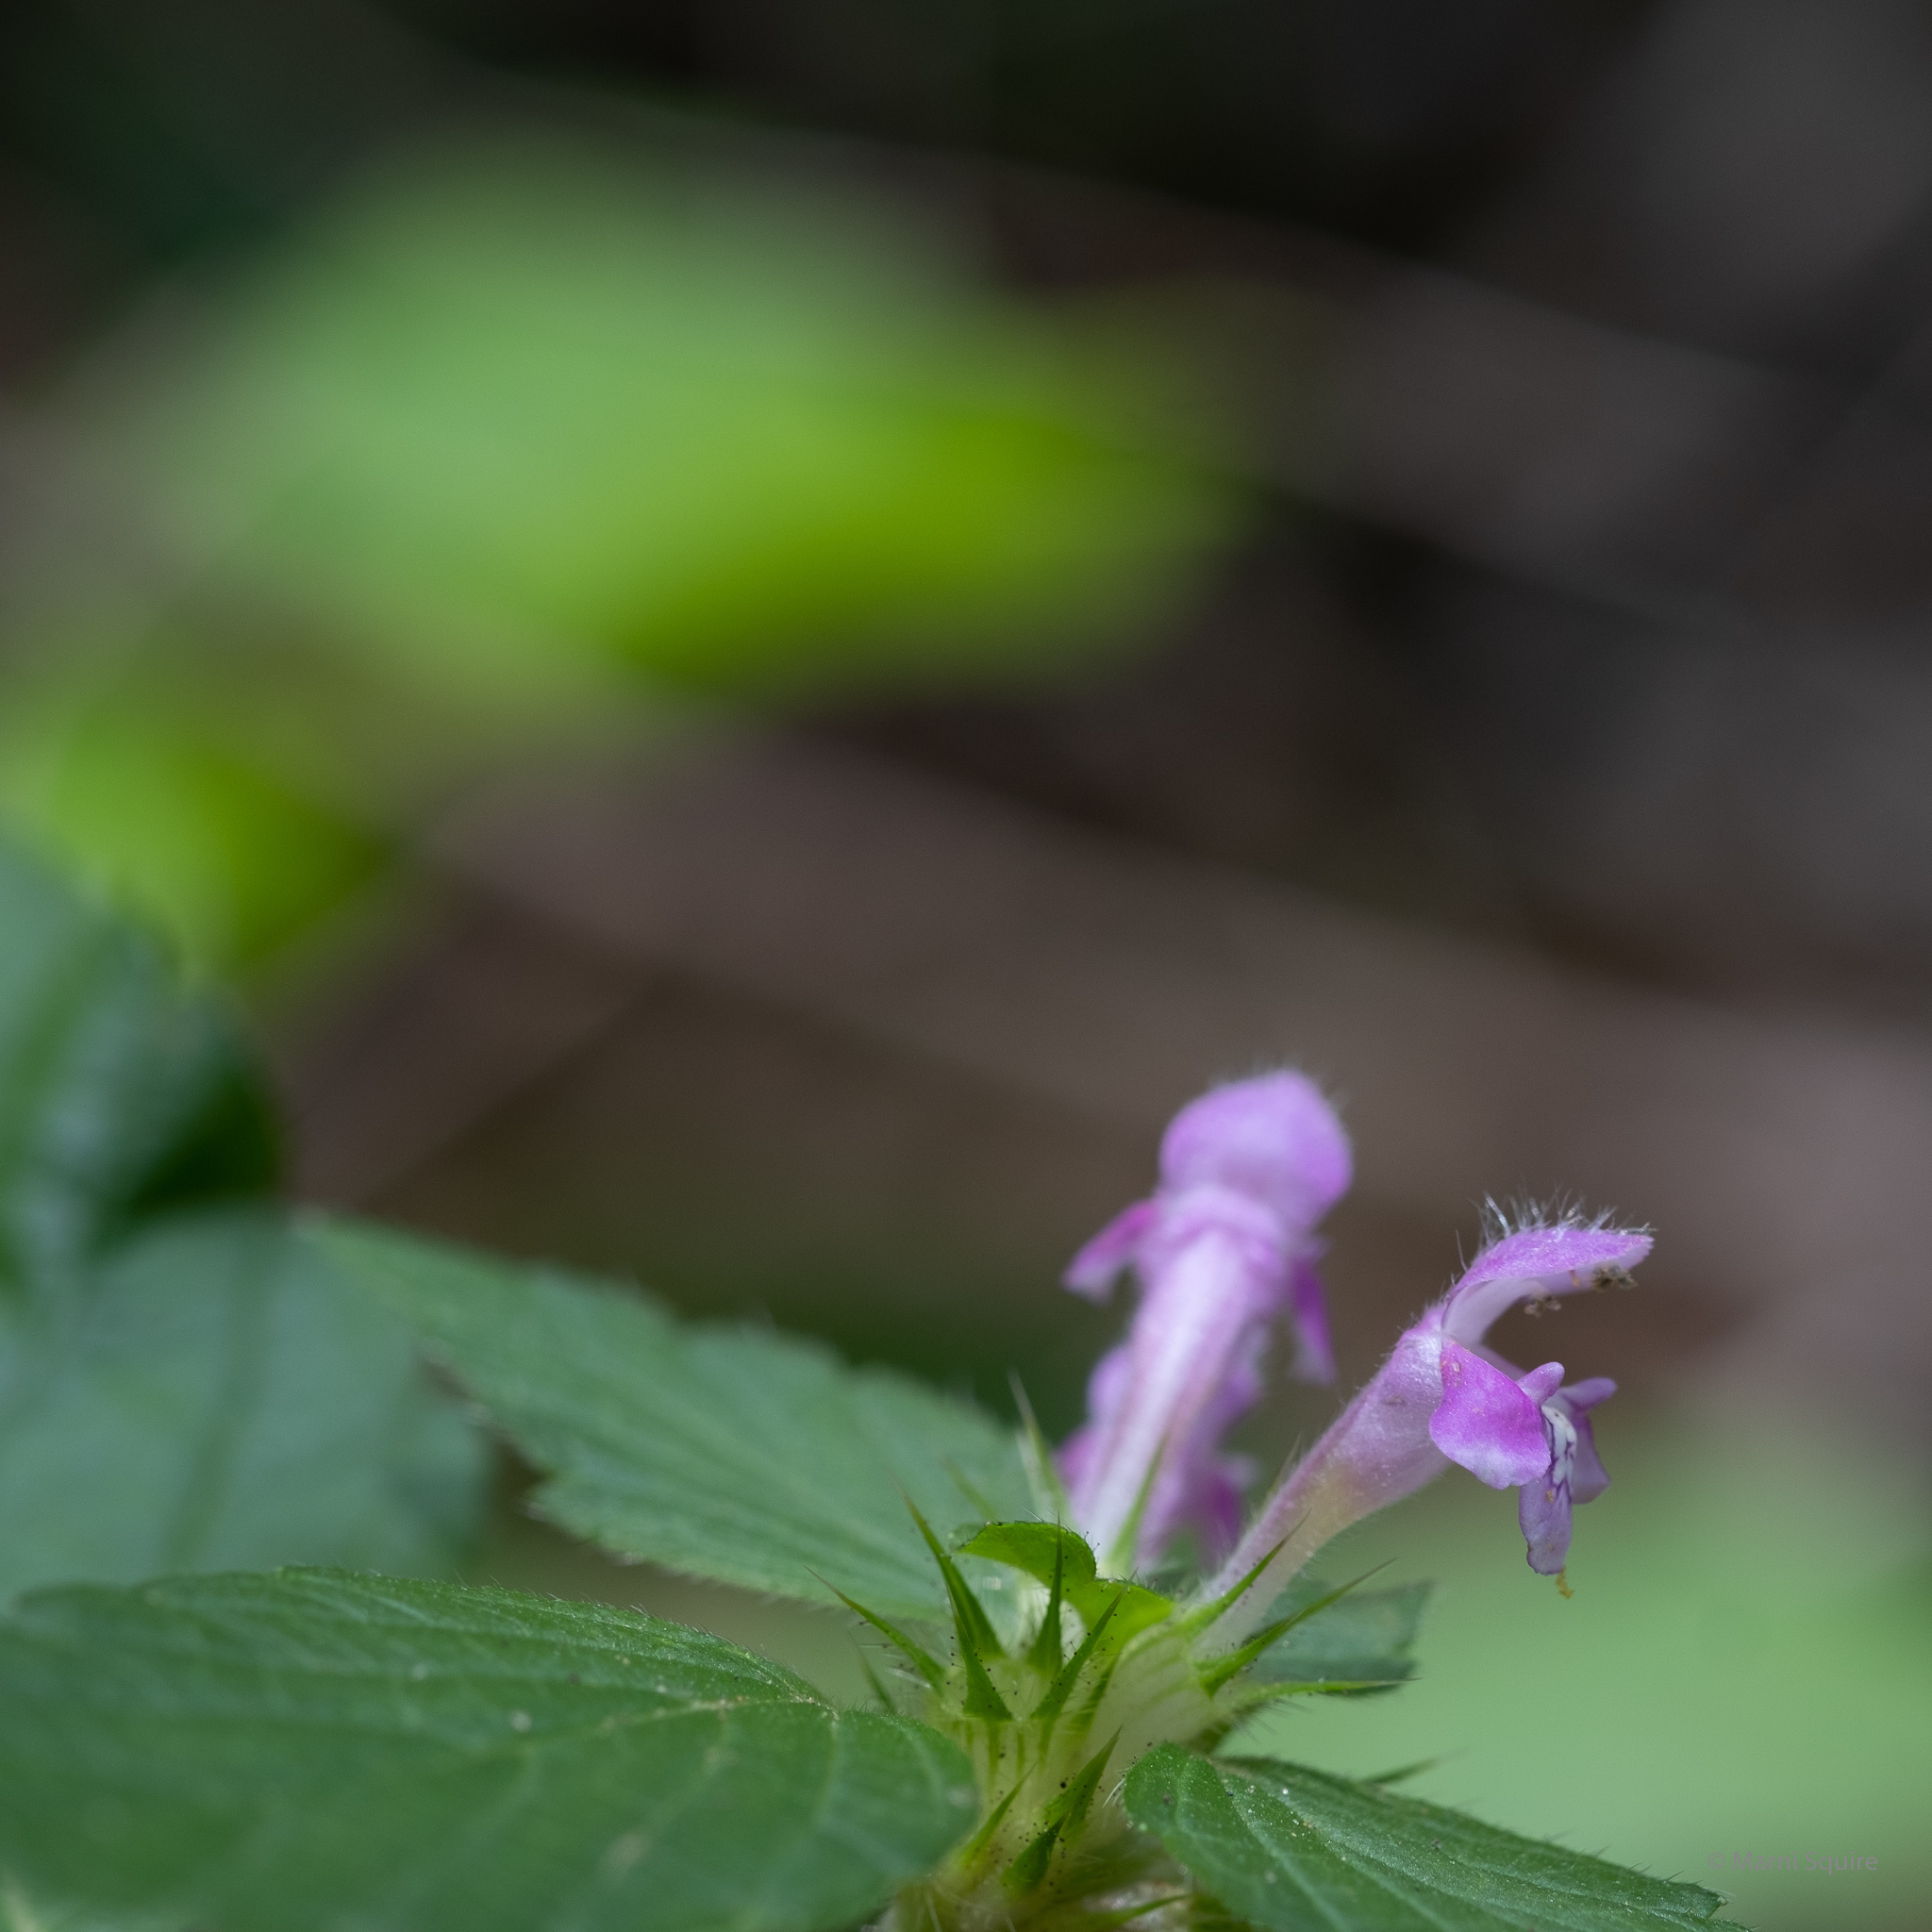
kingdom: Plantae
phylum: Tracheophyta
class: Magnoliopsida
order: Lamiales
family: Lamiaceae
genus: Galeopsis
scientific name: Galeopsis tetrahit
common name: Common hemp-nettle
